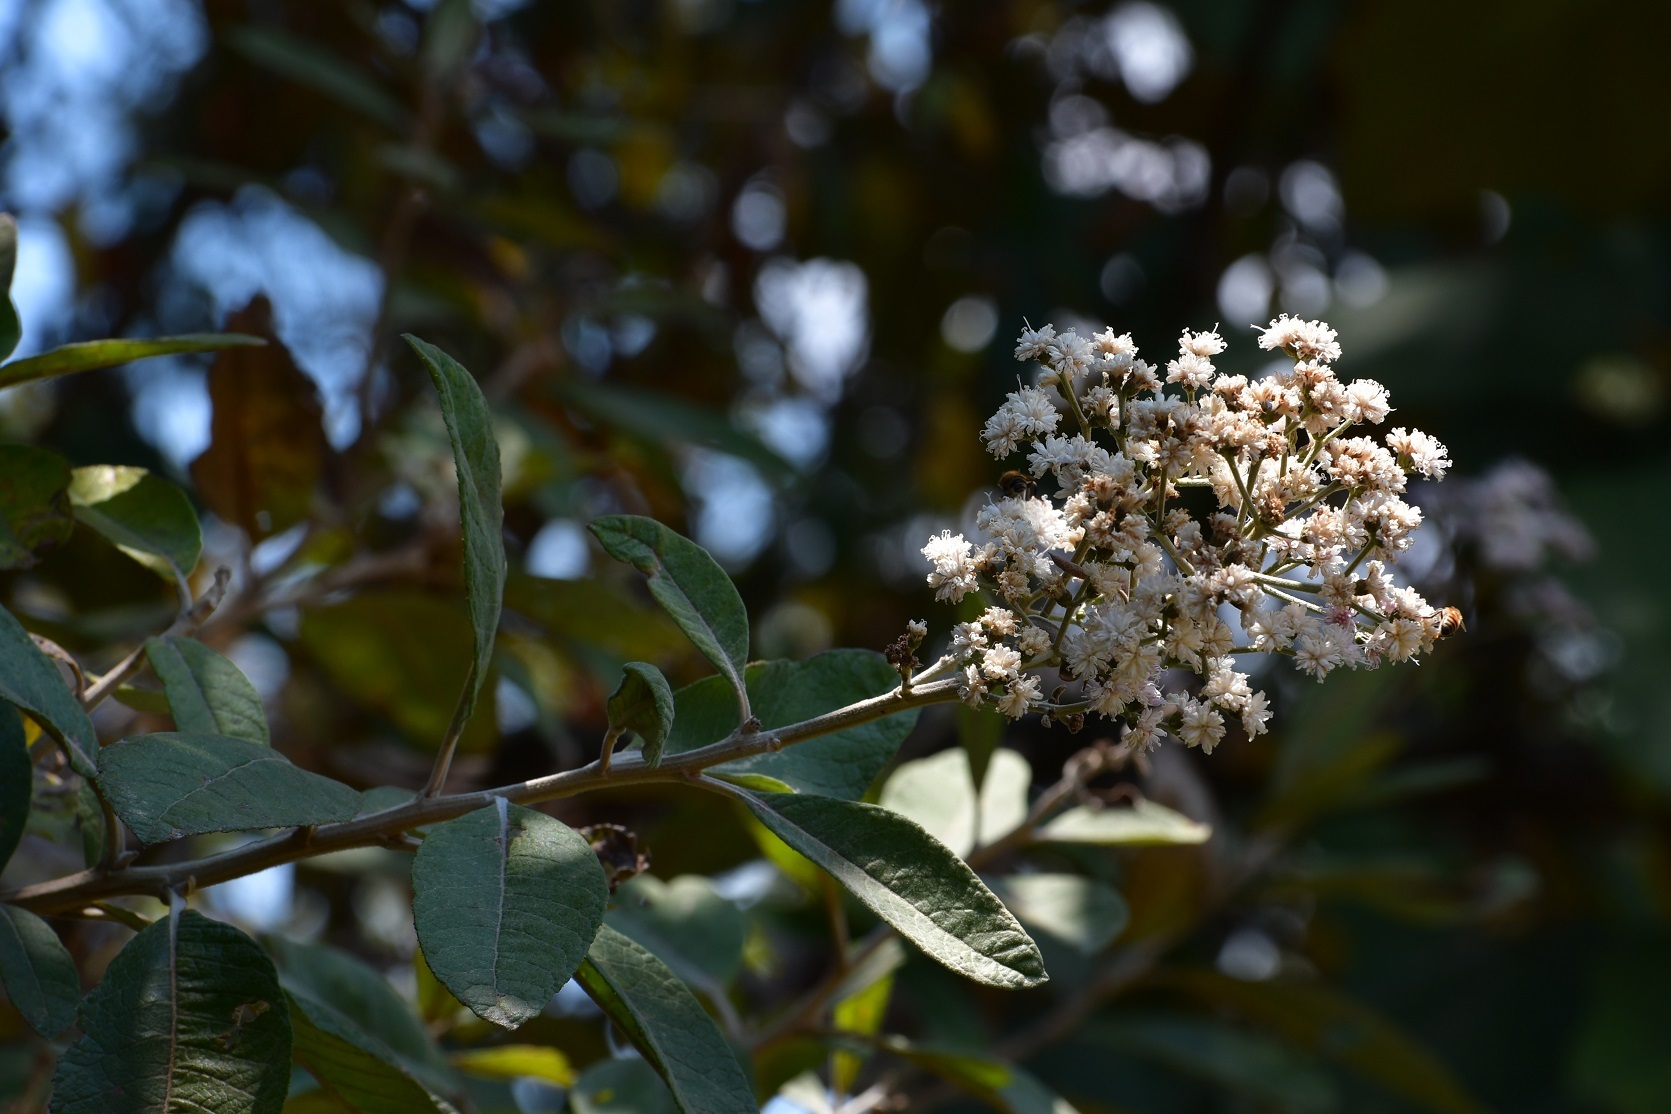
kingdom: Plantae
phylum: Tracheophyta
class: Magnoliopsida
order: Asterales
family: Asteraceae
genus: Vernonanthura
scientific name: Vernonanthura patens
